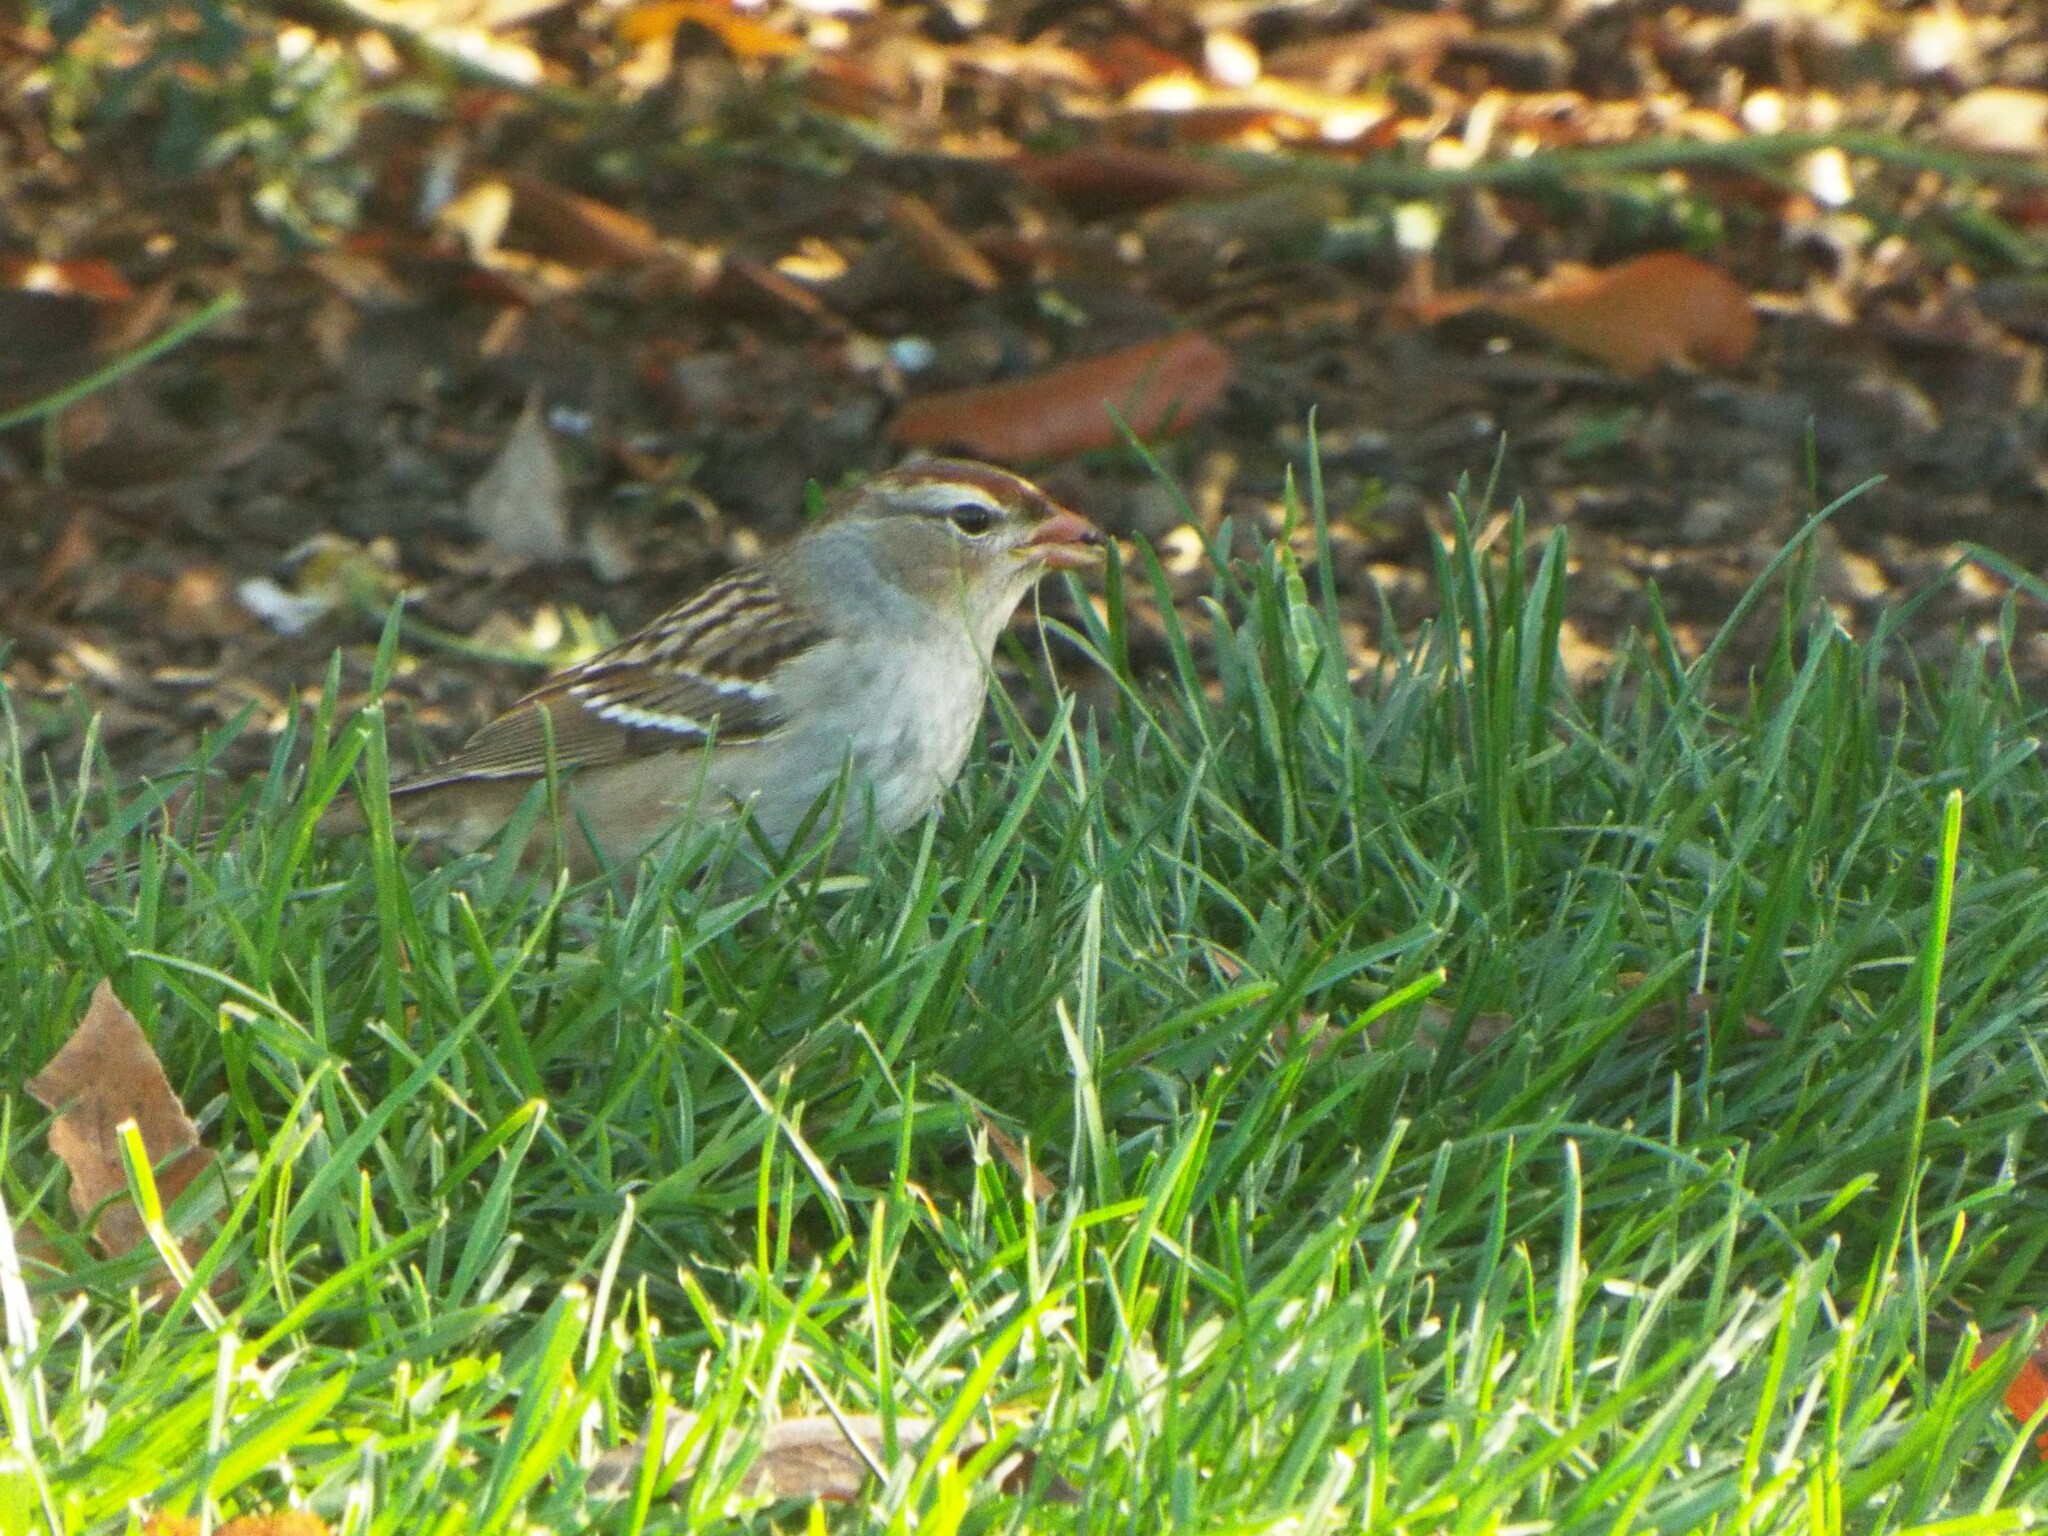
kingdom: Animalia
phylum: Chordata
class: Aves
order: Passeriformes
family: Passerellidae
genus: Zonotrichia
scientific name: Zonotrichia leucophrys
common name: White-crowned sparrow
